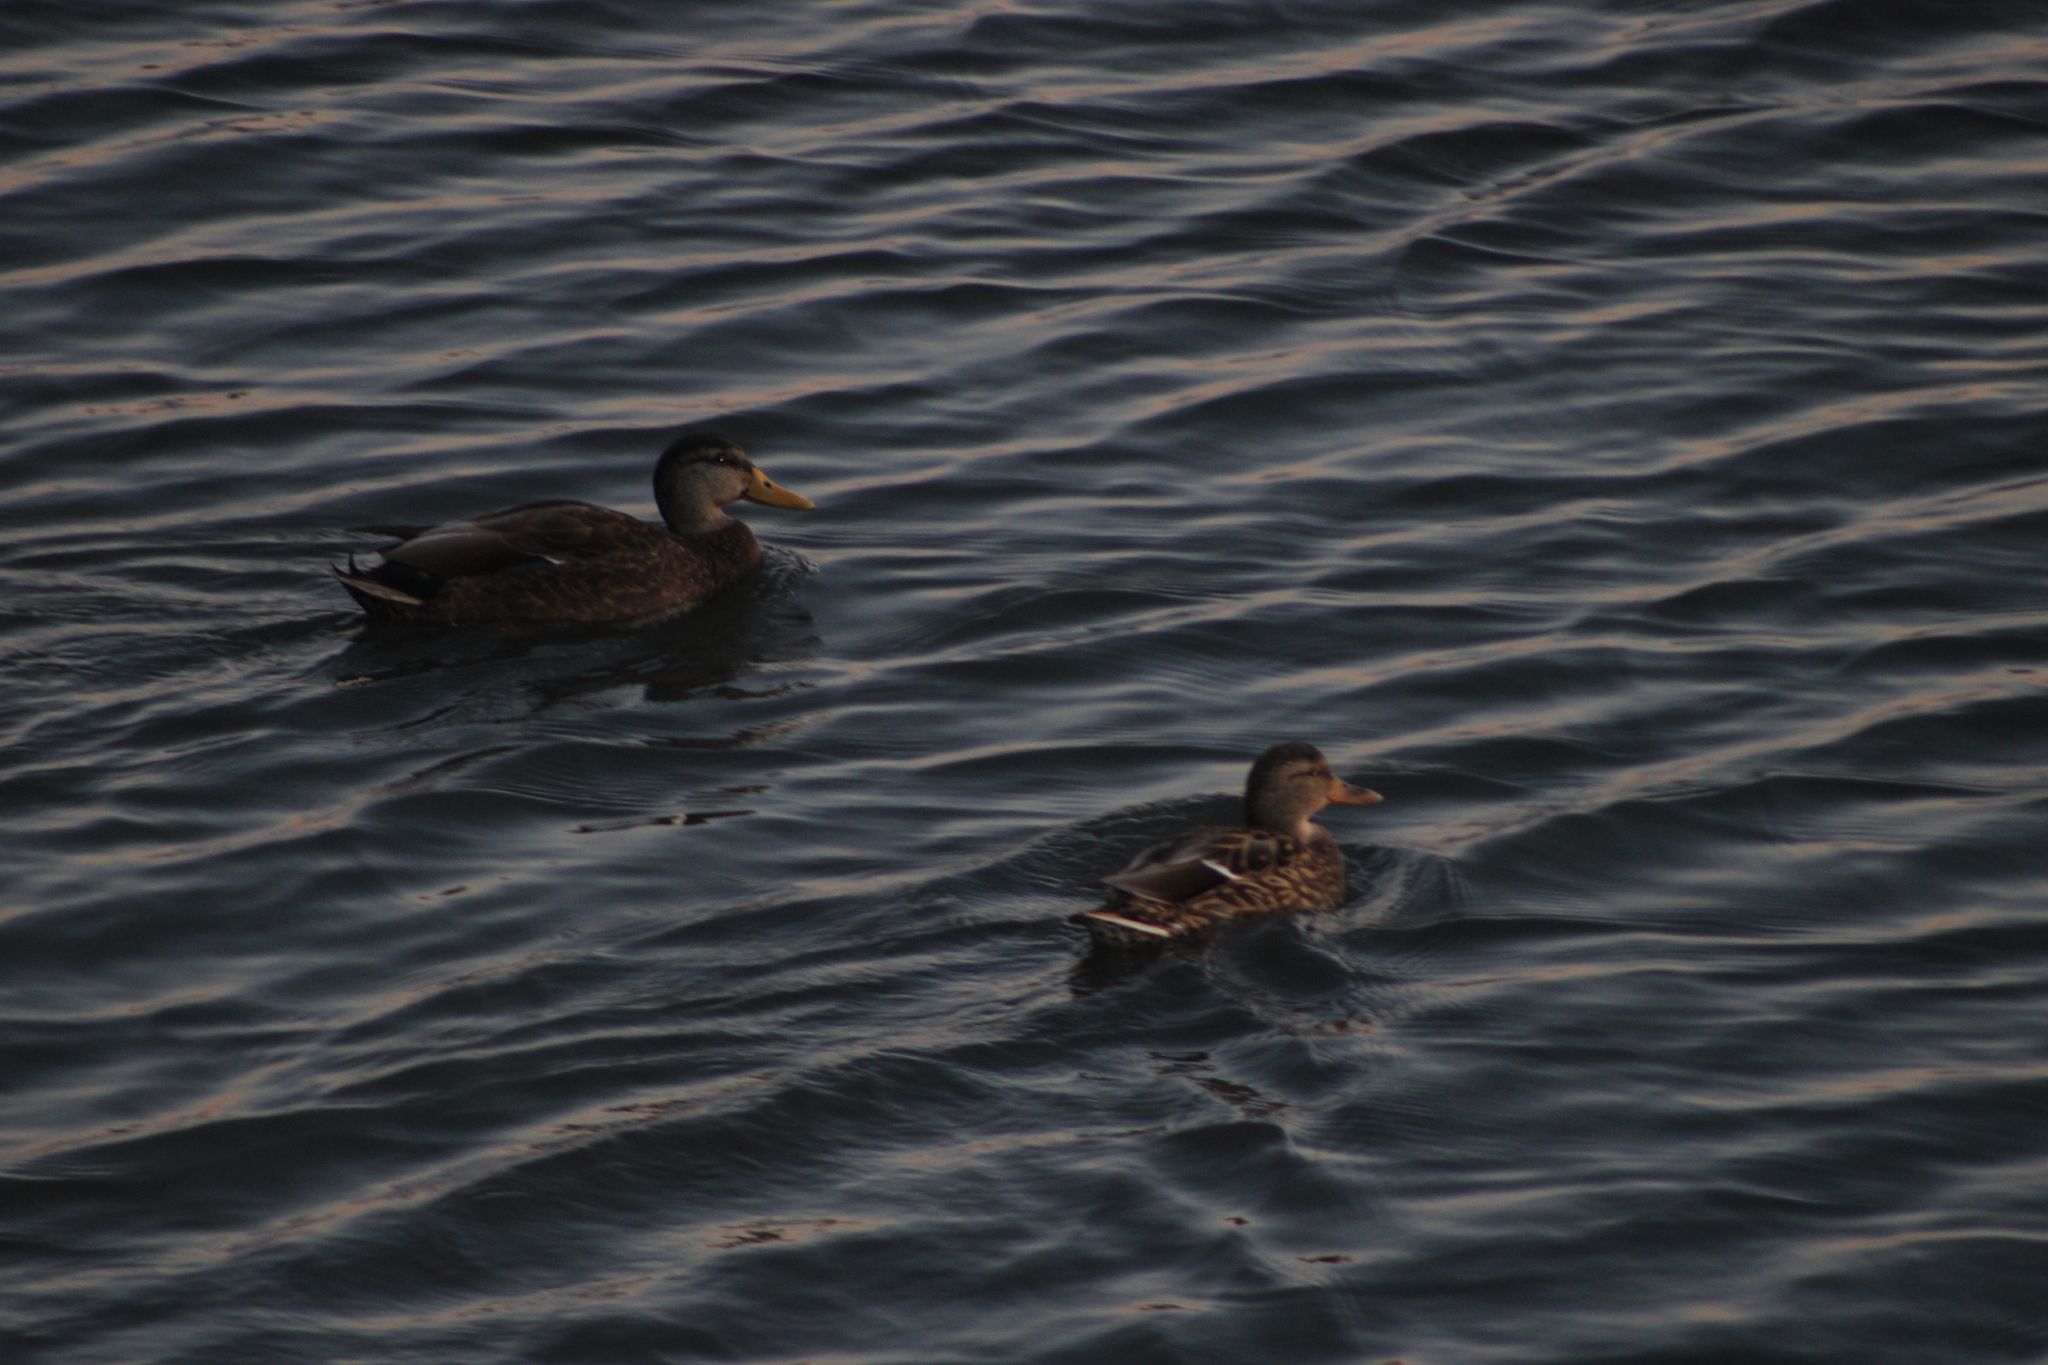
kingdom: Animalia
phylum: Chordata
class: Aves
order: Anseriformes
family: Anatidae
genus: Anas
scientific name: Anas rubripes
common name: American black duck
